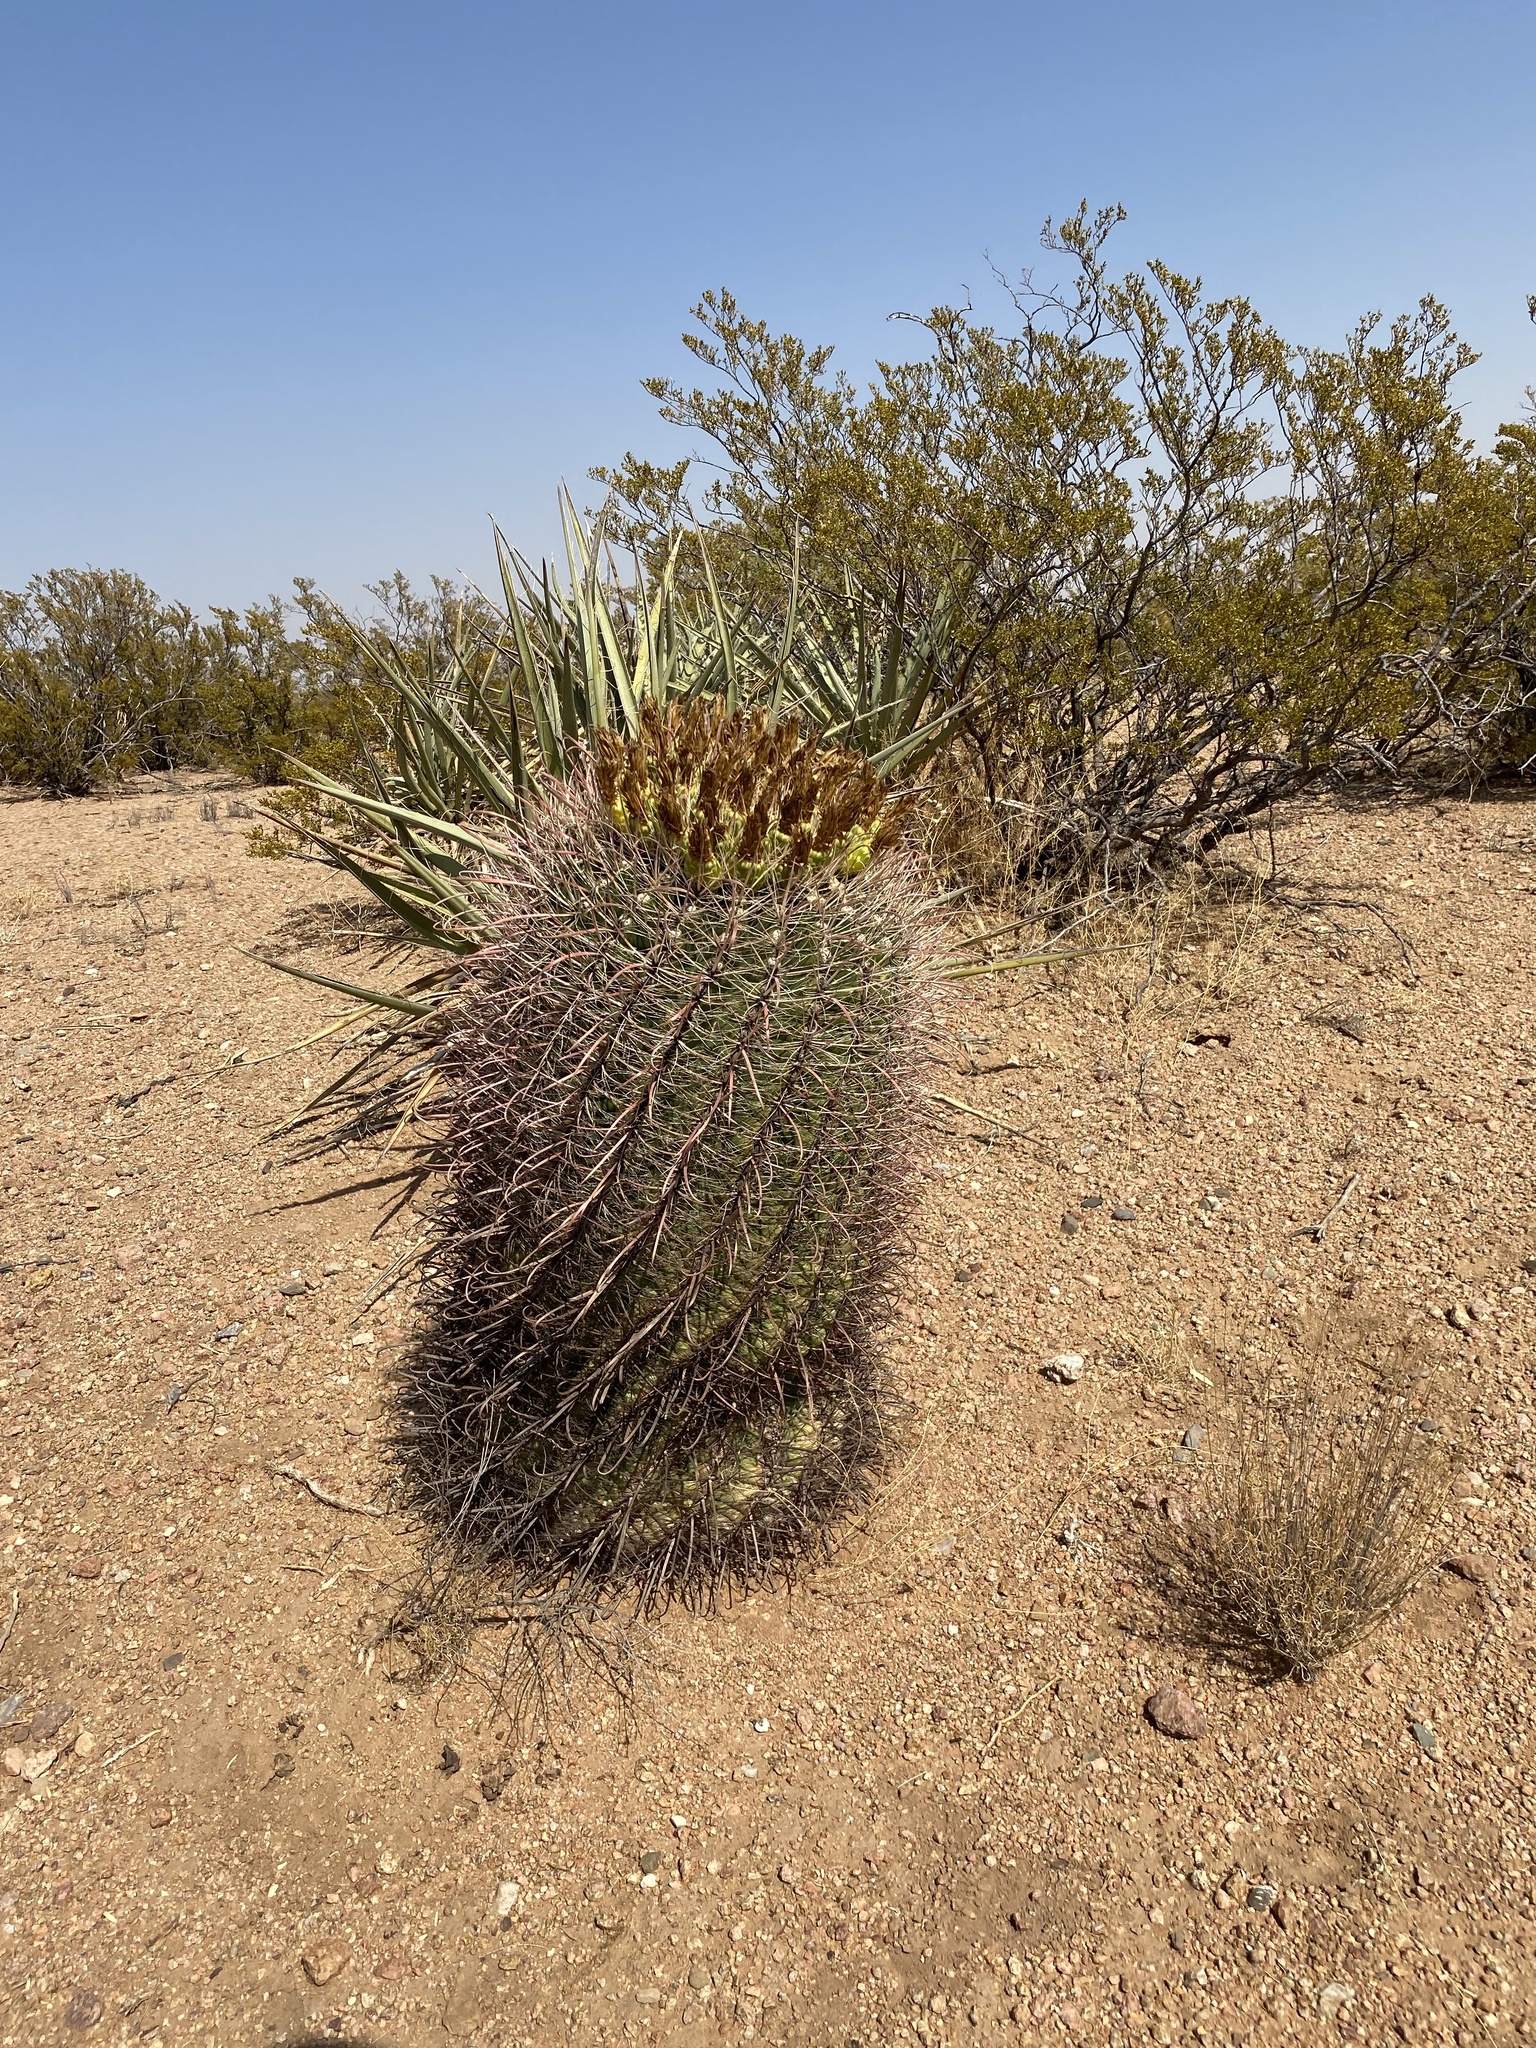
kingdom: Plantae
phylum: Tracheophyta
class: Magnoliopsida
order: Caryophyllales
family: Cactaceae
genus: Ferocactus
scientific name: Ferocactus wislizeni
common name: Candy barrel cactus
